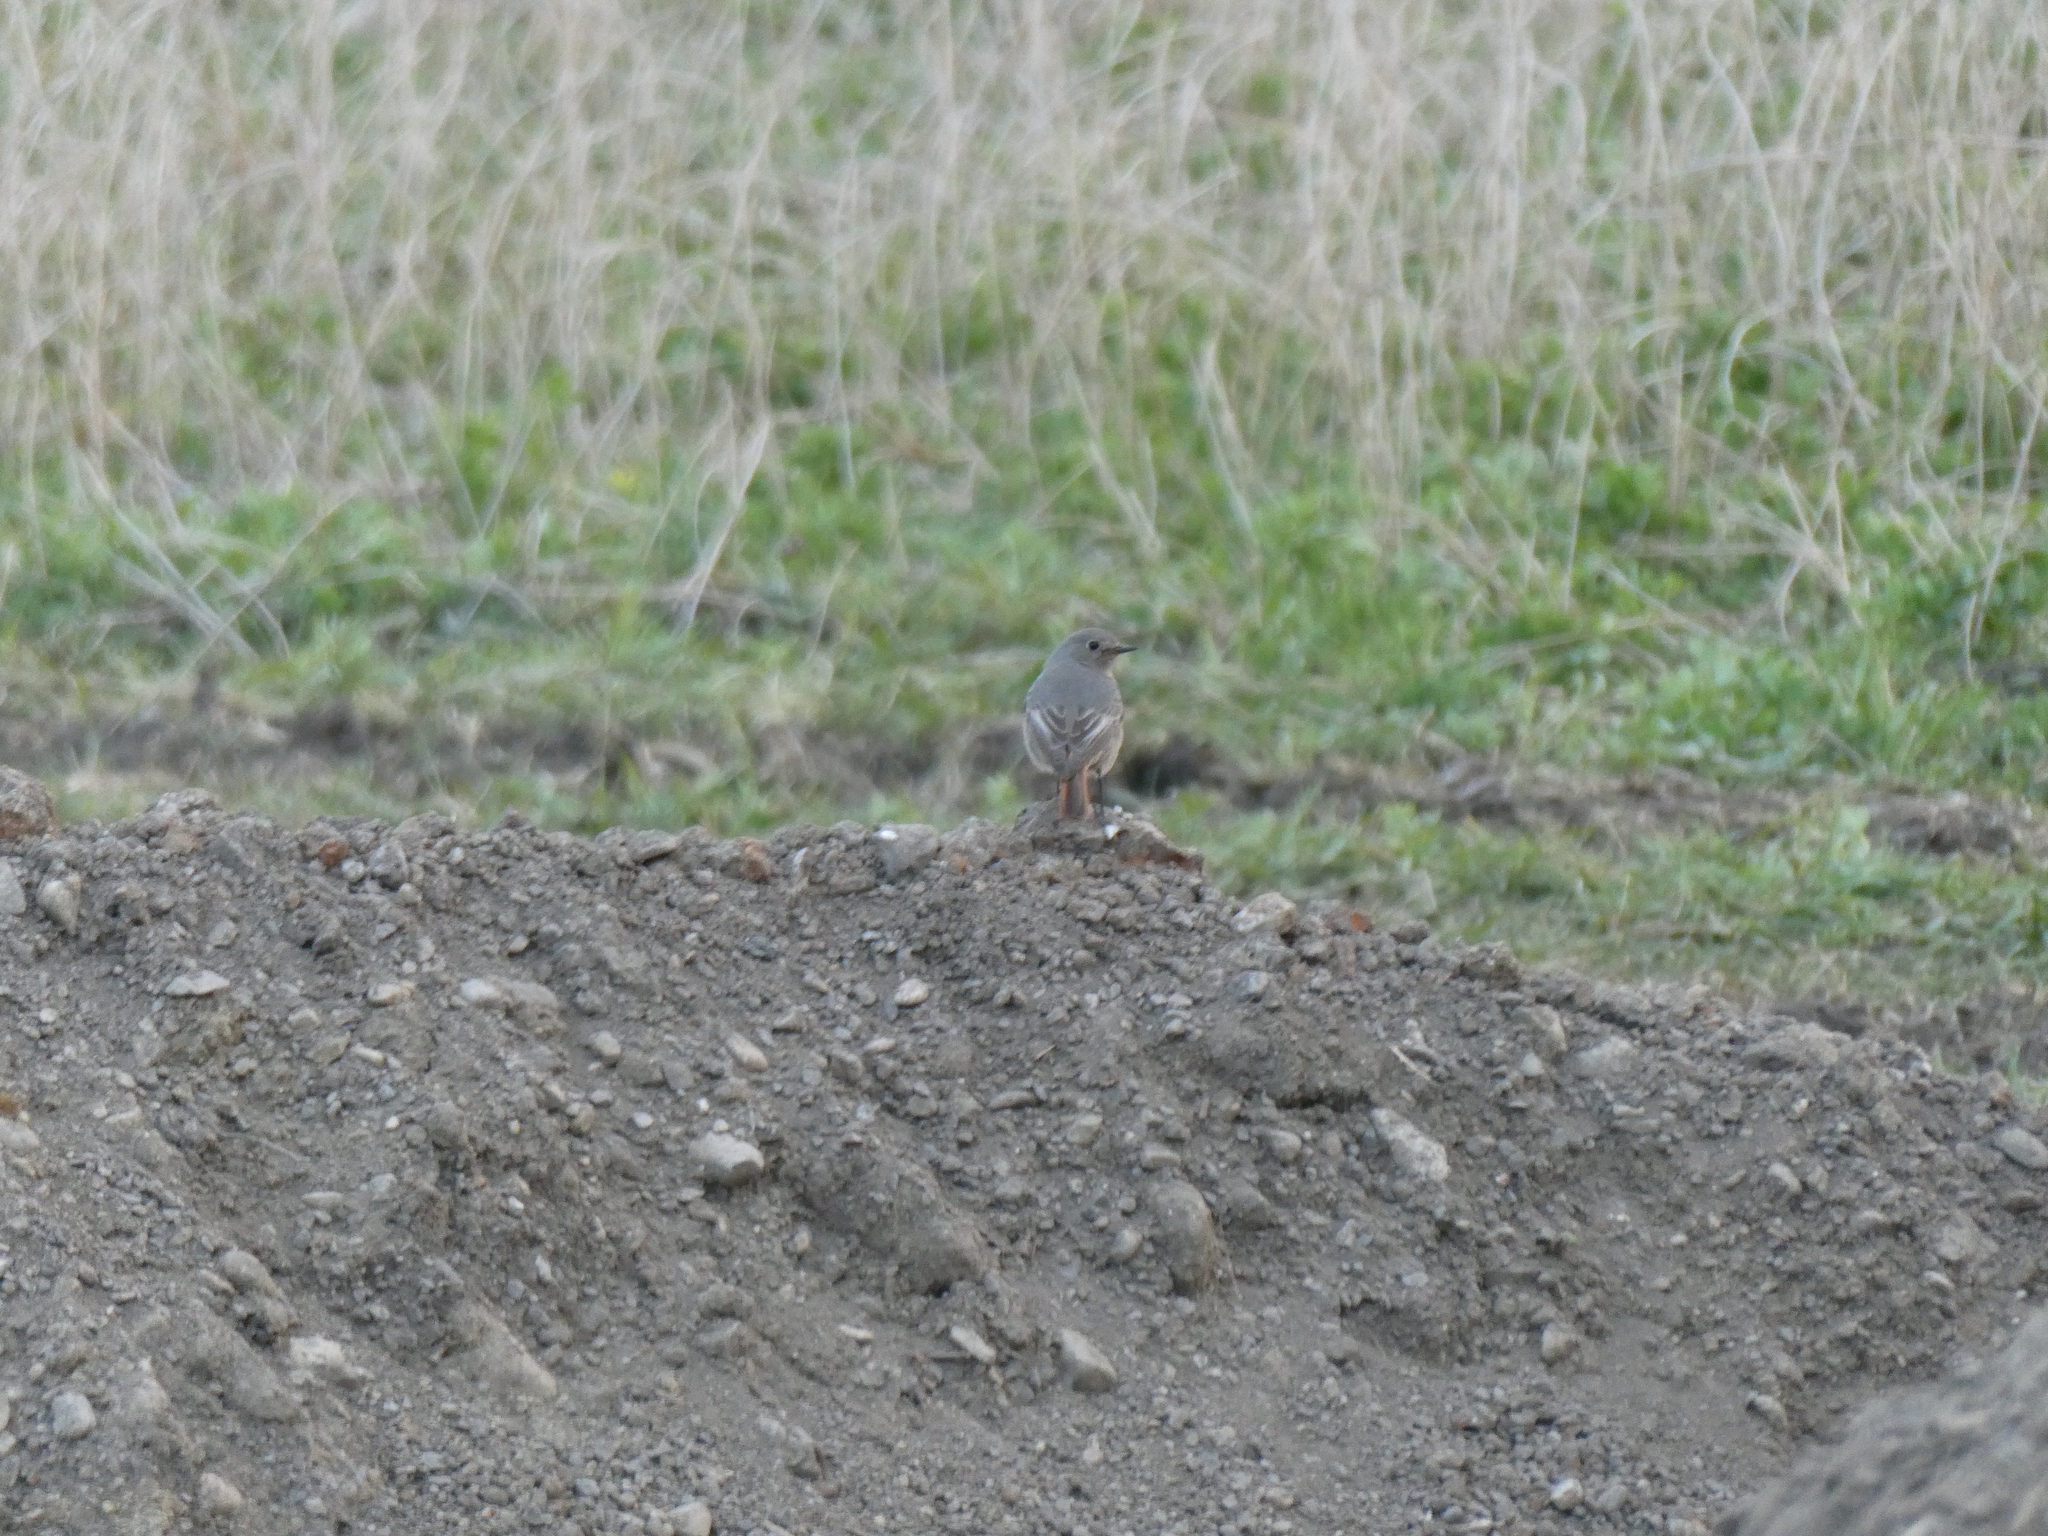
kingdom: Animalia
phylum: Chordata
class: Aves
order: Passeriformes
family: Muscicapidae
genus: Phoenicurus
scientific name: Phoenicurus ochruros
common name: Black redstart
